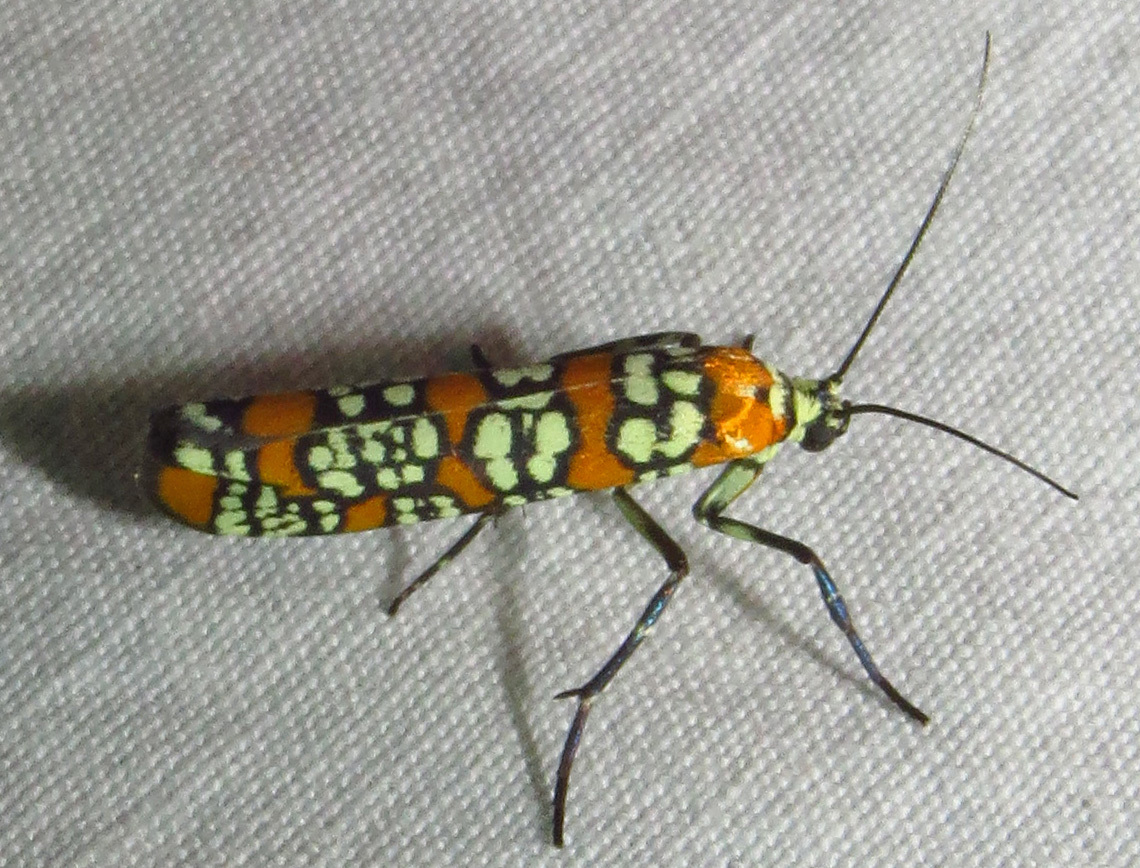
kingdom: Animalia
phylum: Arthropoda
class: Insecta
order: Lepidoptera
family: Attevidae
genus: Atteva
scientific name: Atteva punctella
